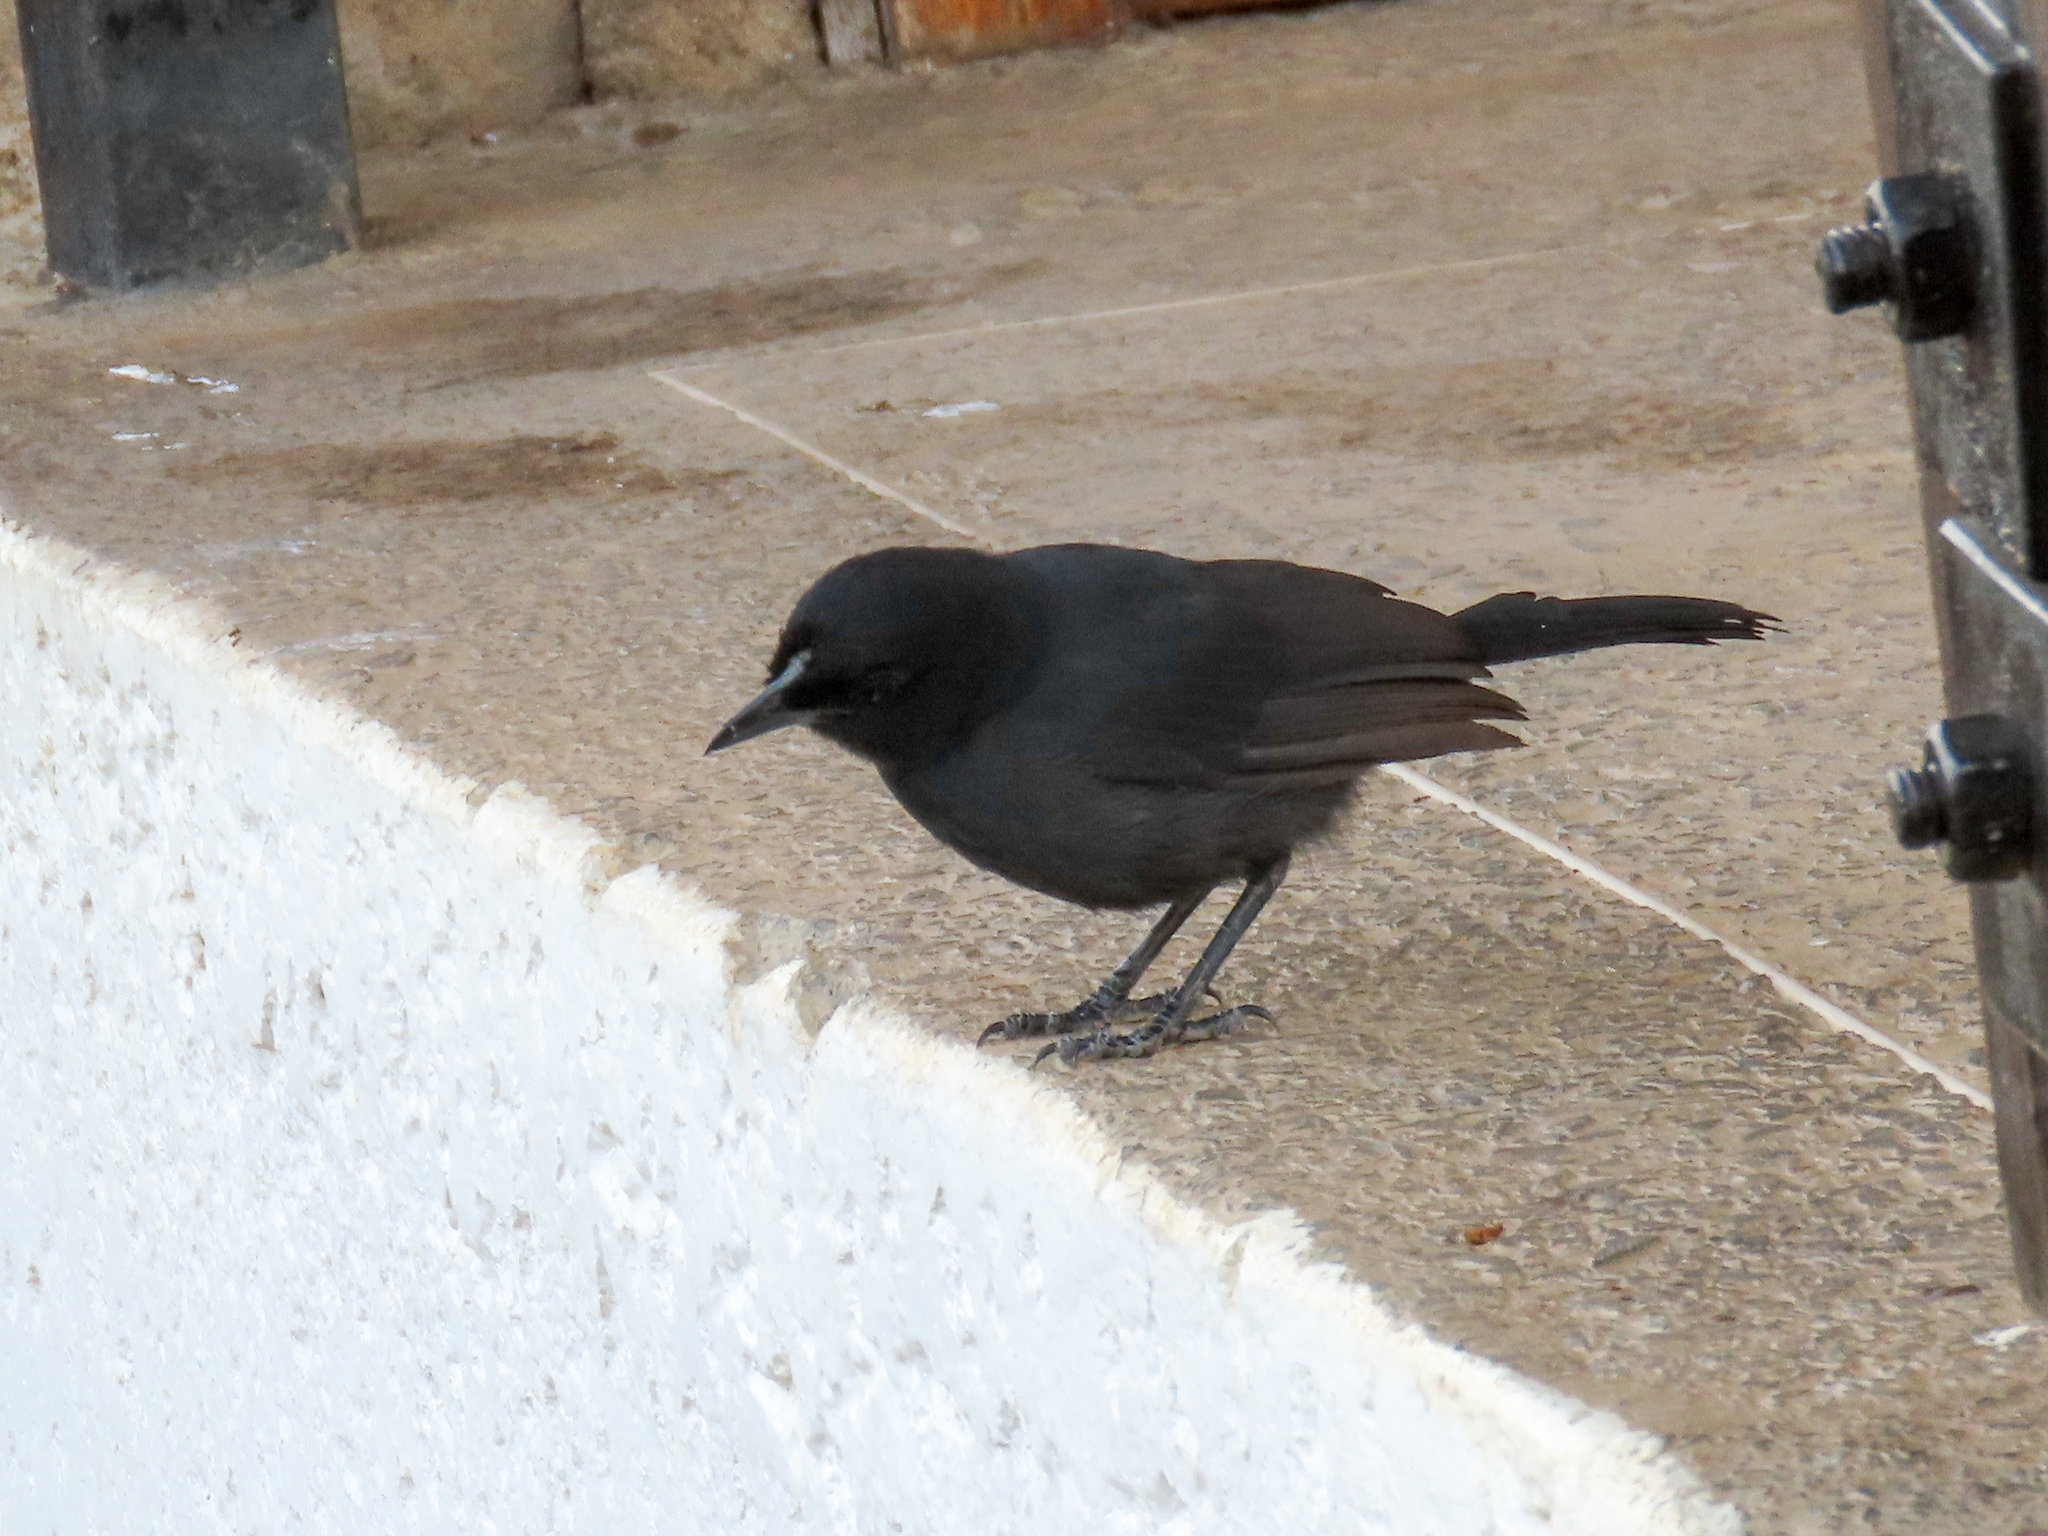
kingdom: Animalia
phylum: Chordata
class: Aves
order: Passeriformes
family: Malaconotidae
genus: Laniarius
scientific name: Laniarius funebris
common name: Slate-colored boubou
